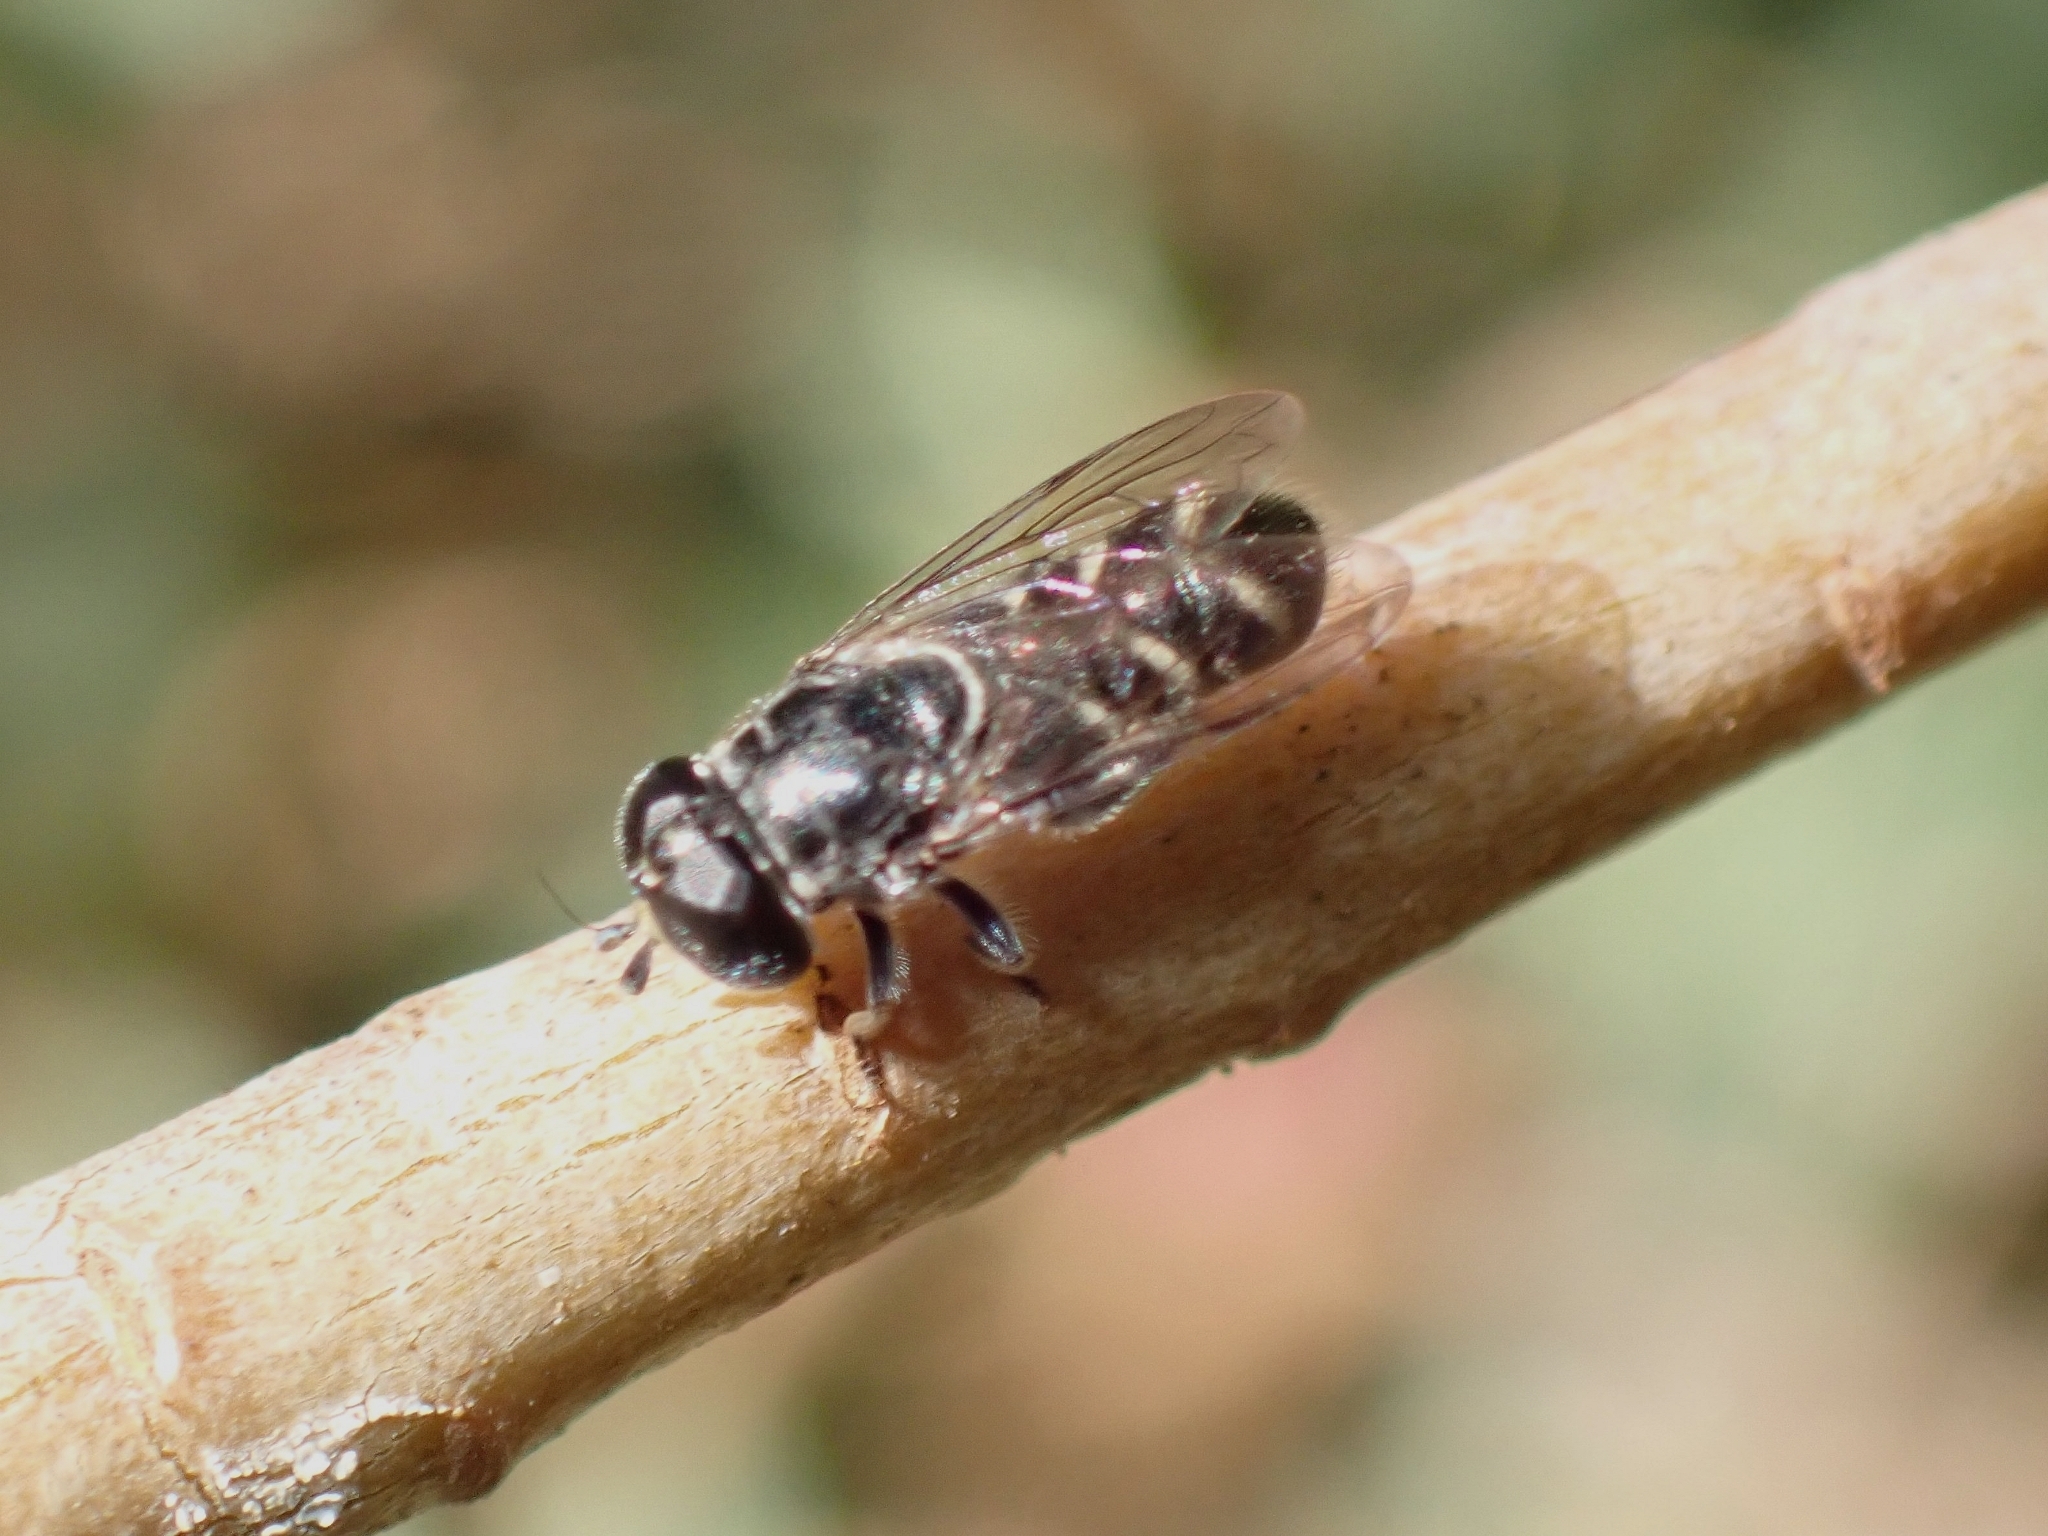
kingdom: Animalia
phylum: Arthropoda
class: Insecta
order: Diptera
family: Syrphidae
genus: Eumerus
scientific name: Eumerus obliquus
